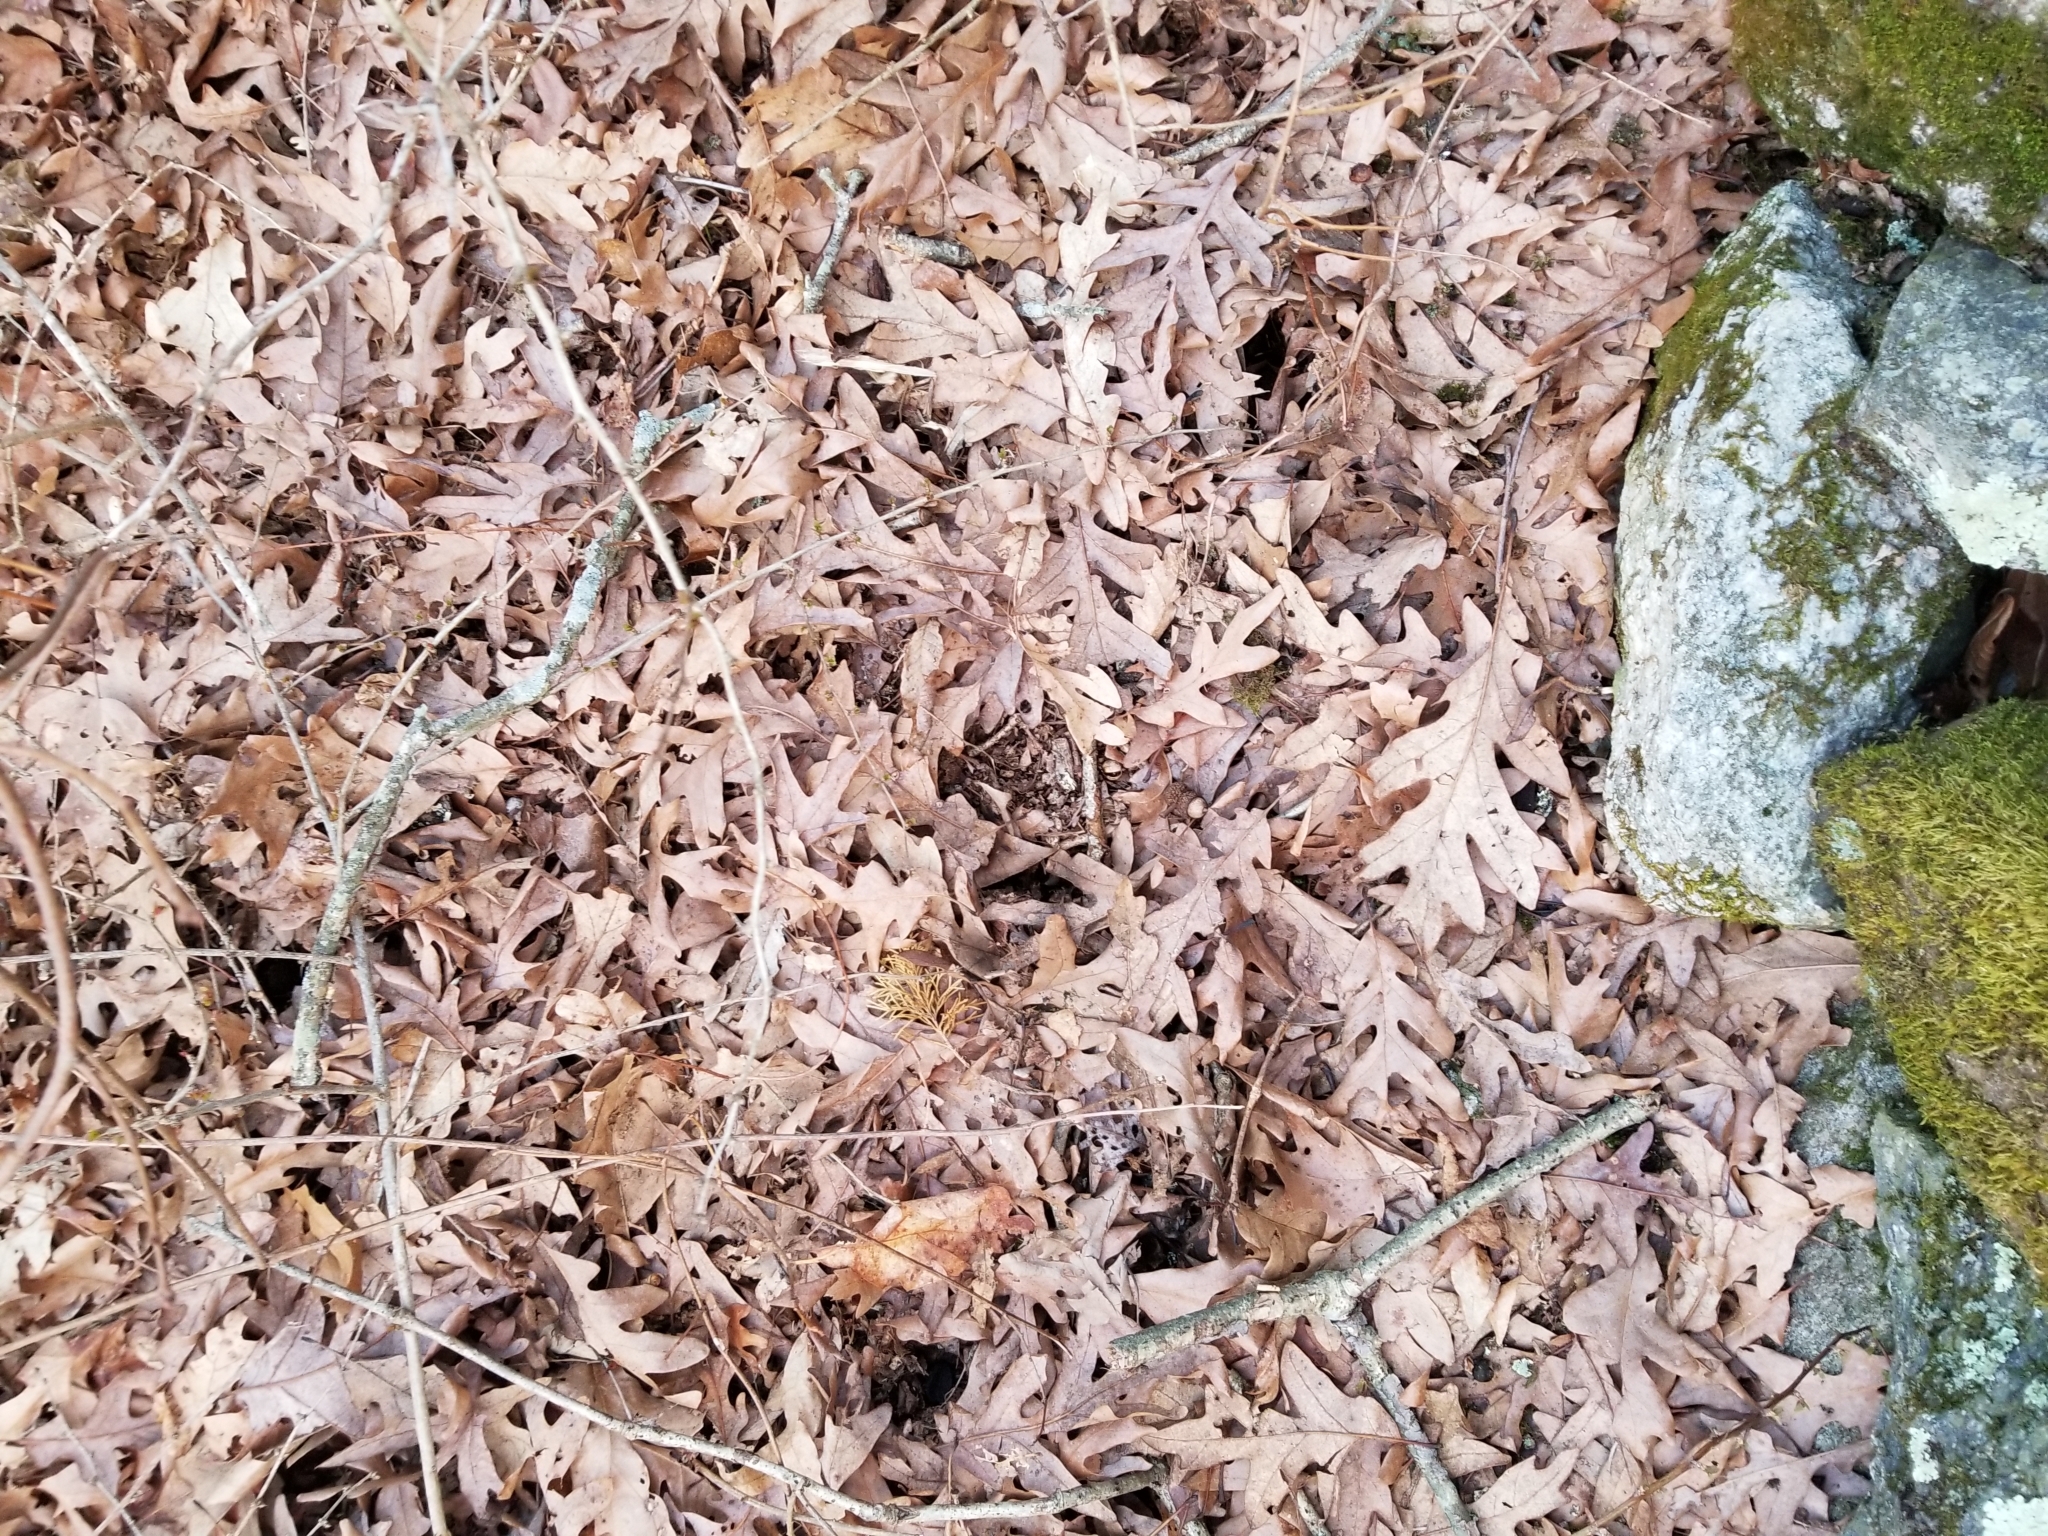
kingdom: Plantae
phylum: Tracheophyta
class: Magnoliopsida
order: Fagales
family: Fagaceae
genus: Quercus
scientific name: Quercus alba
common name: White oak
